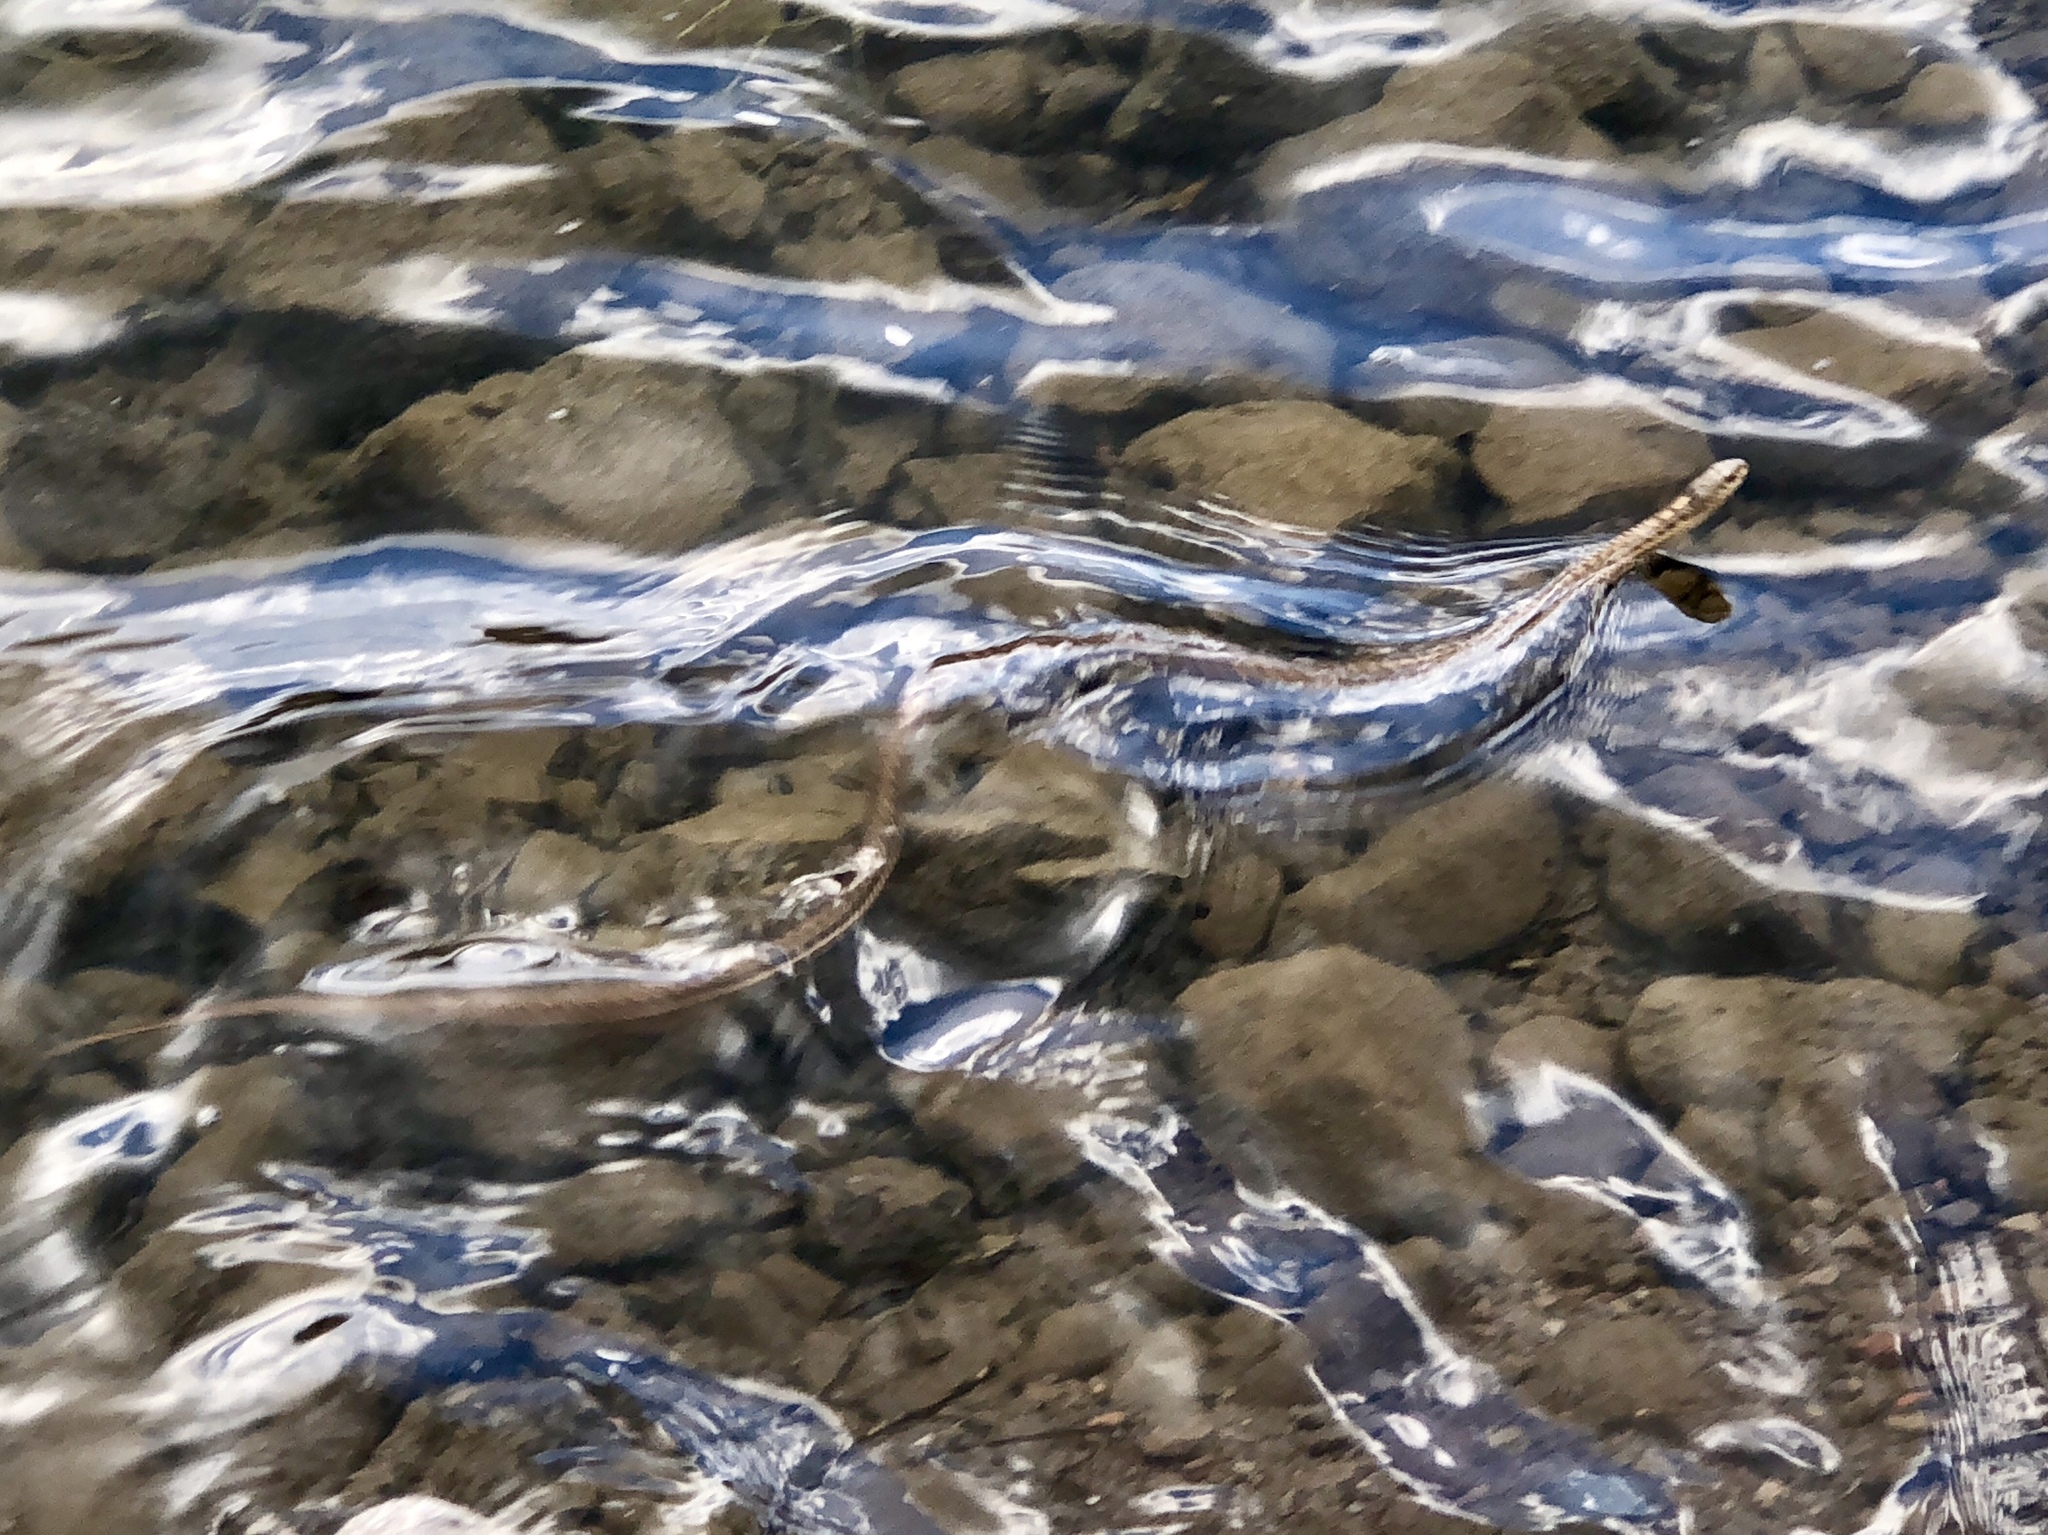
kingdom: Animalia
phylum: Chordata
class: Squamata
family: Colubridae
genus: Thamnophis
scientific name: Thamnophis elegans
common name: Western terrestrial garter snake
